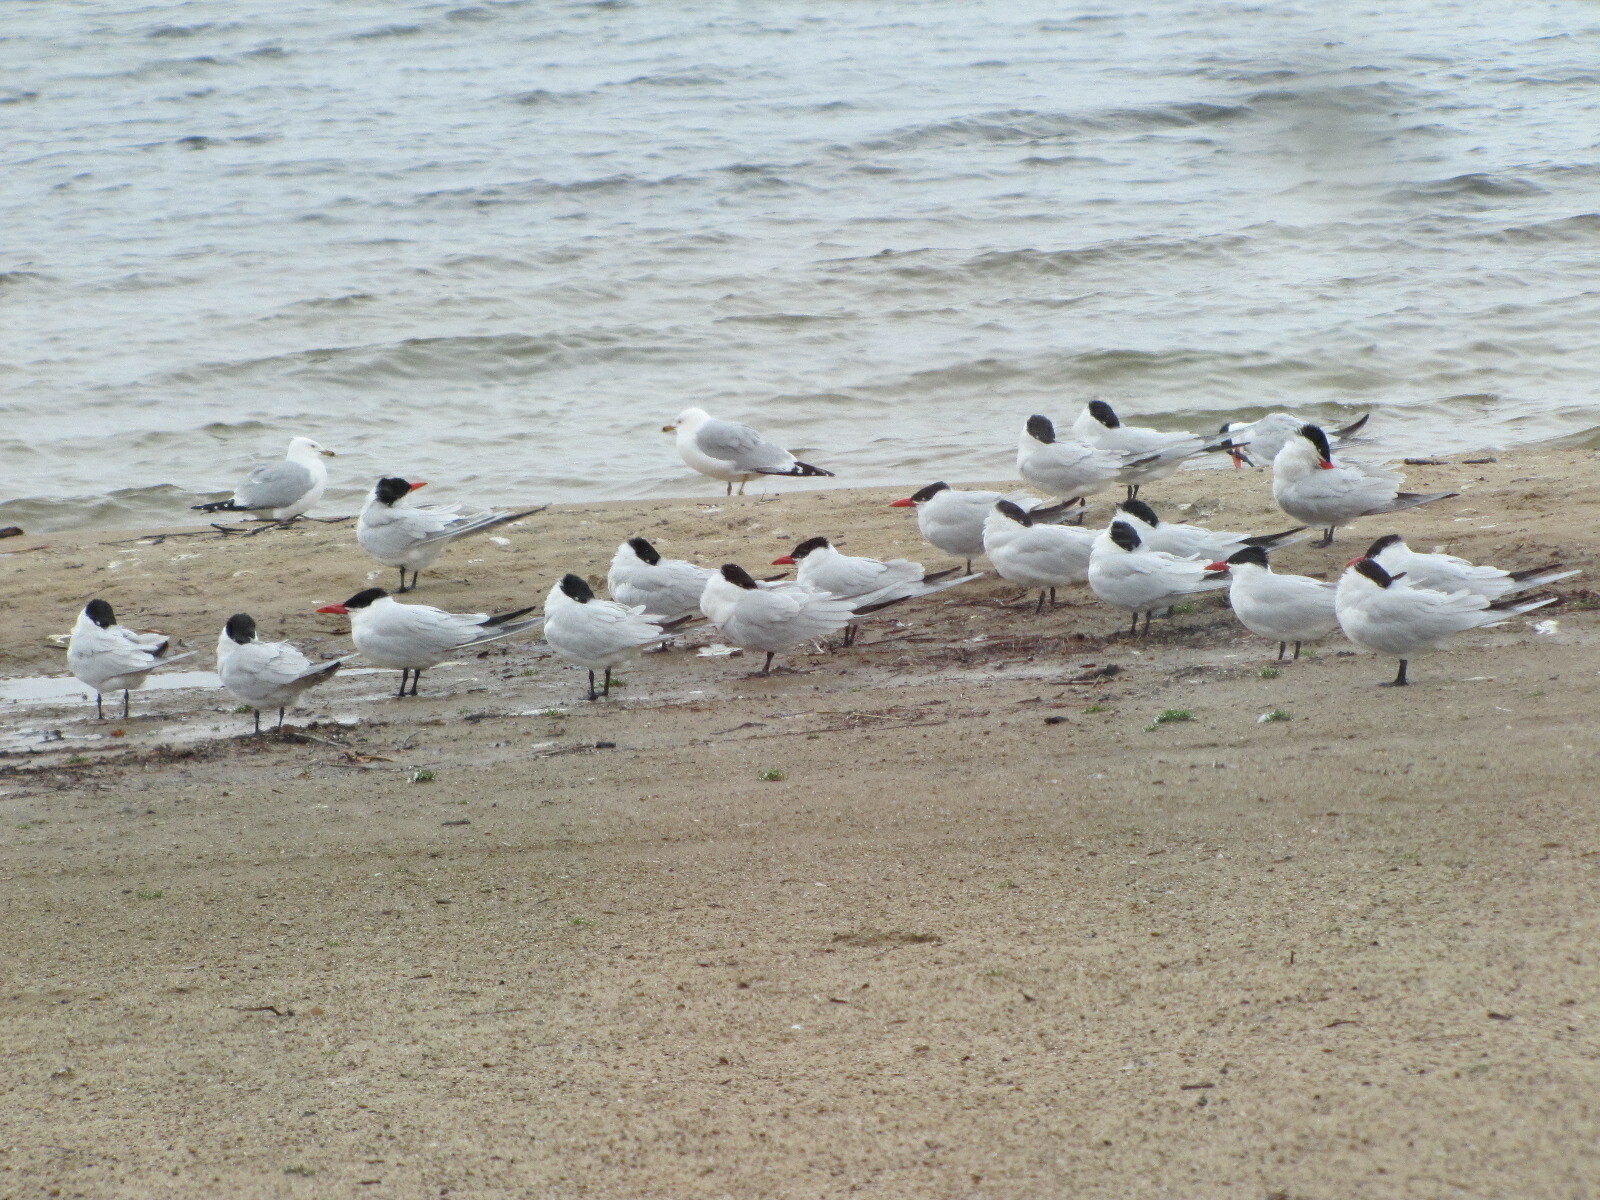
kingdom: Animalia
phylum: Chordata
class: Aves
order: Charadriiformes
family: Laridae
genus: Hydroprogne
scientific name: Hydroprogne caspia
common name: Caspian tern
